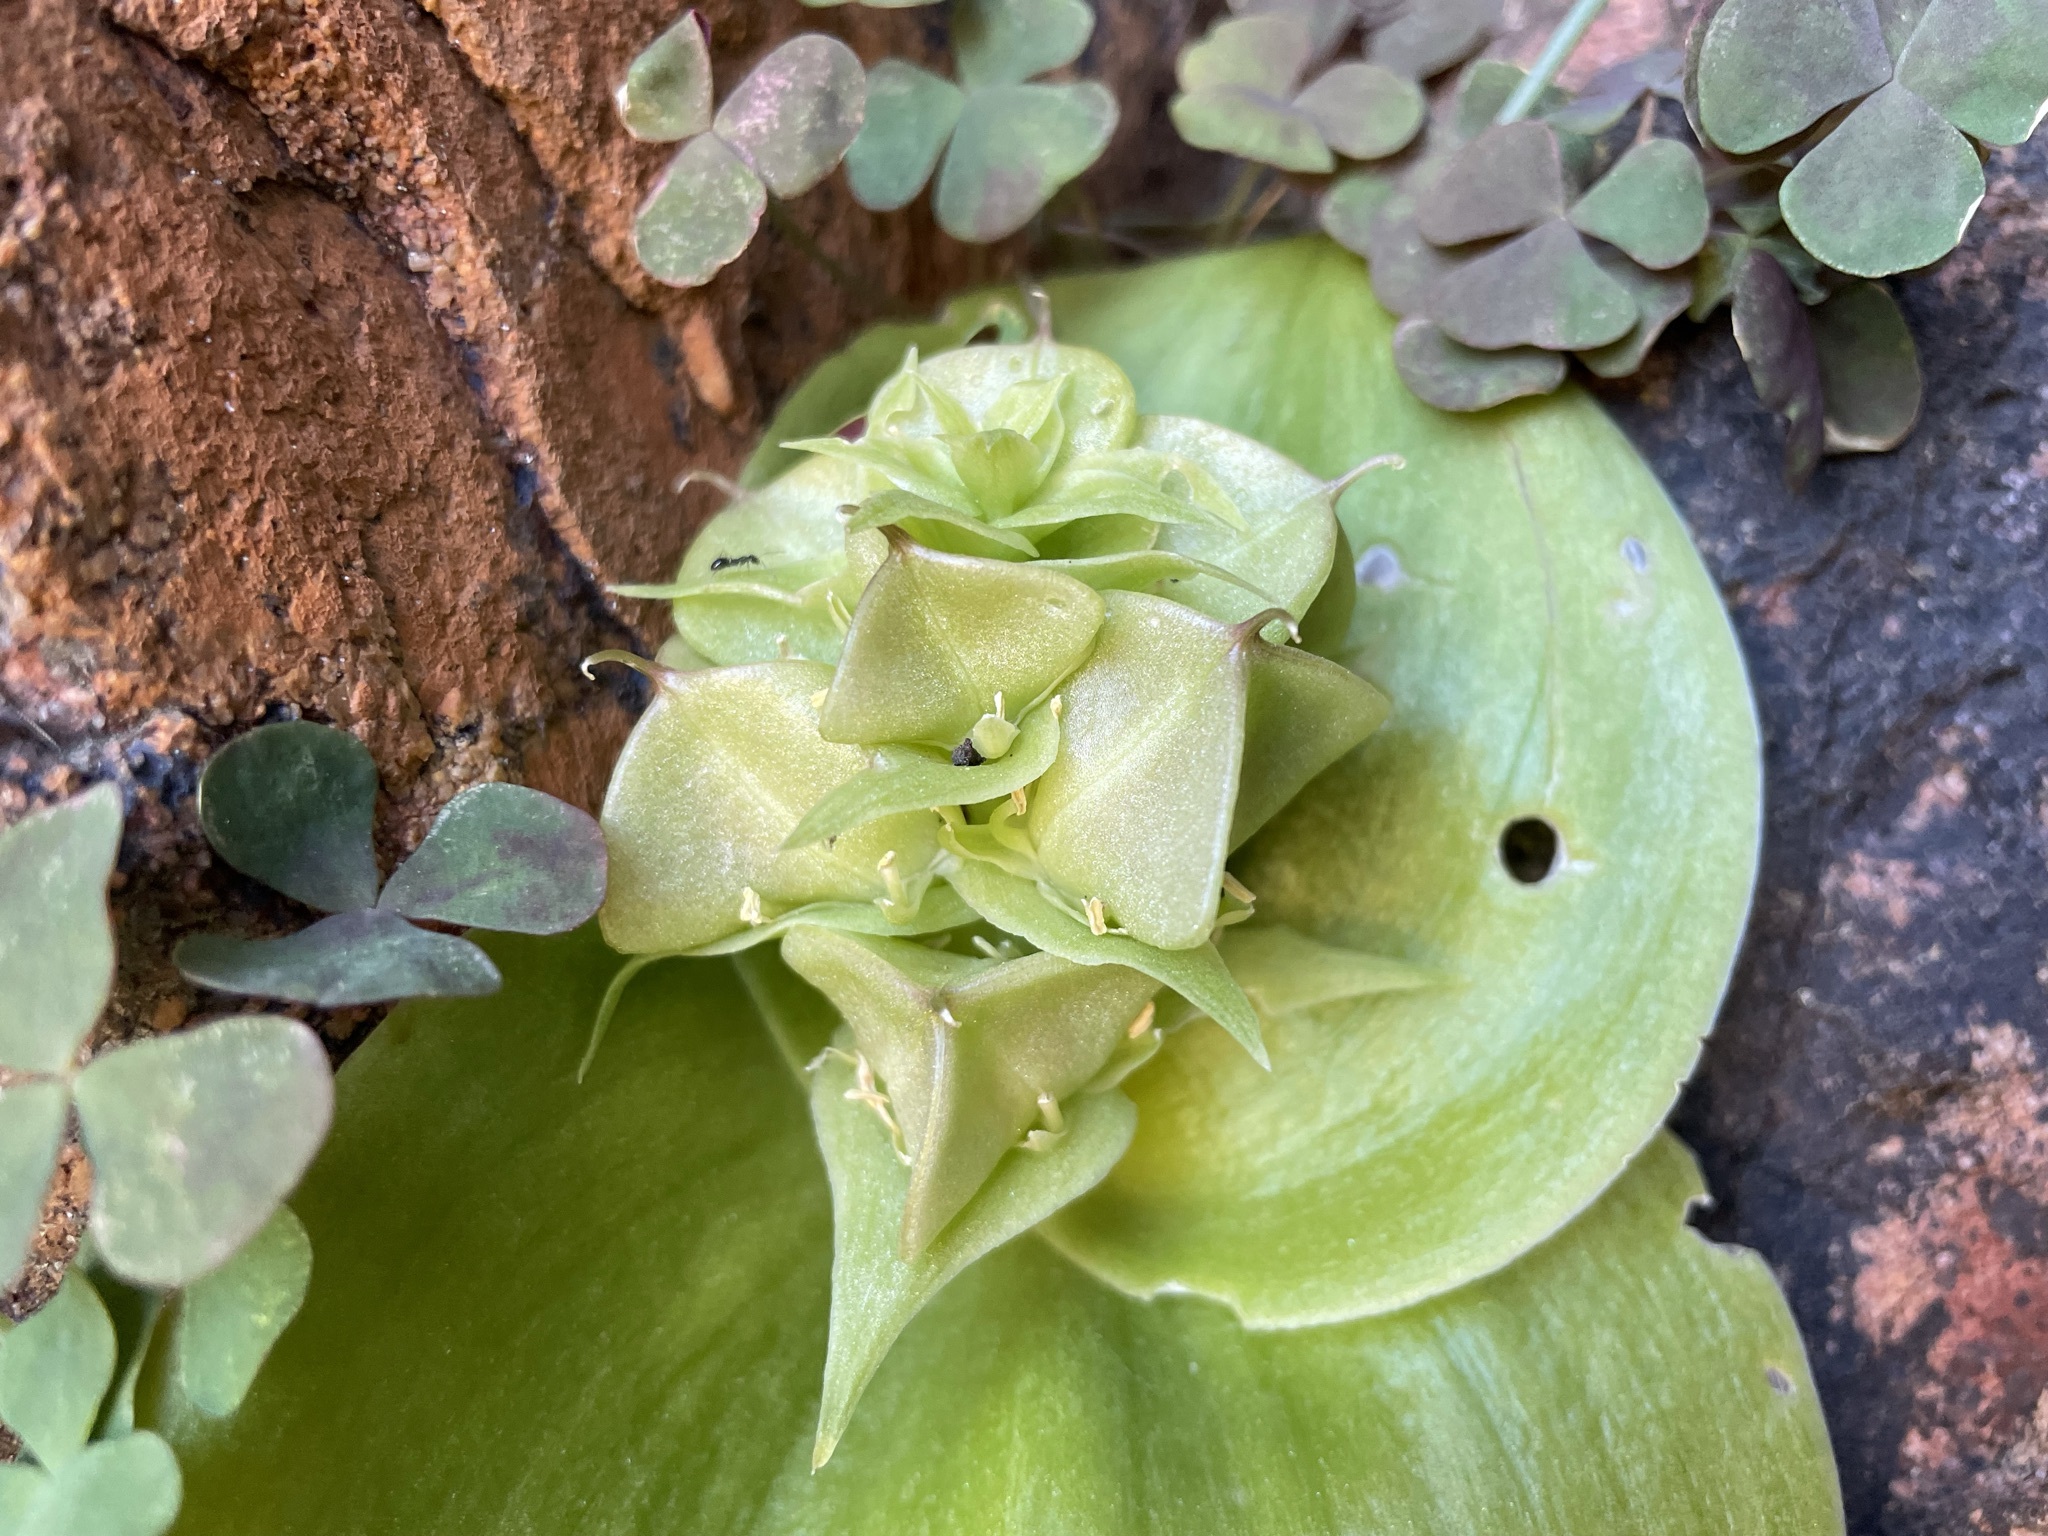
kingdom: Plantae
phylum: Tracheophyta
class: Liliopsida
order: Asparagales
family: Asparagaceae
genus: Massonia
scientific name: Massonia bifolia
